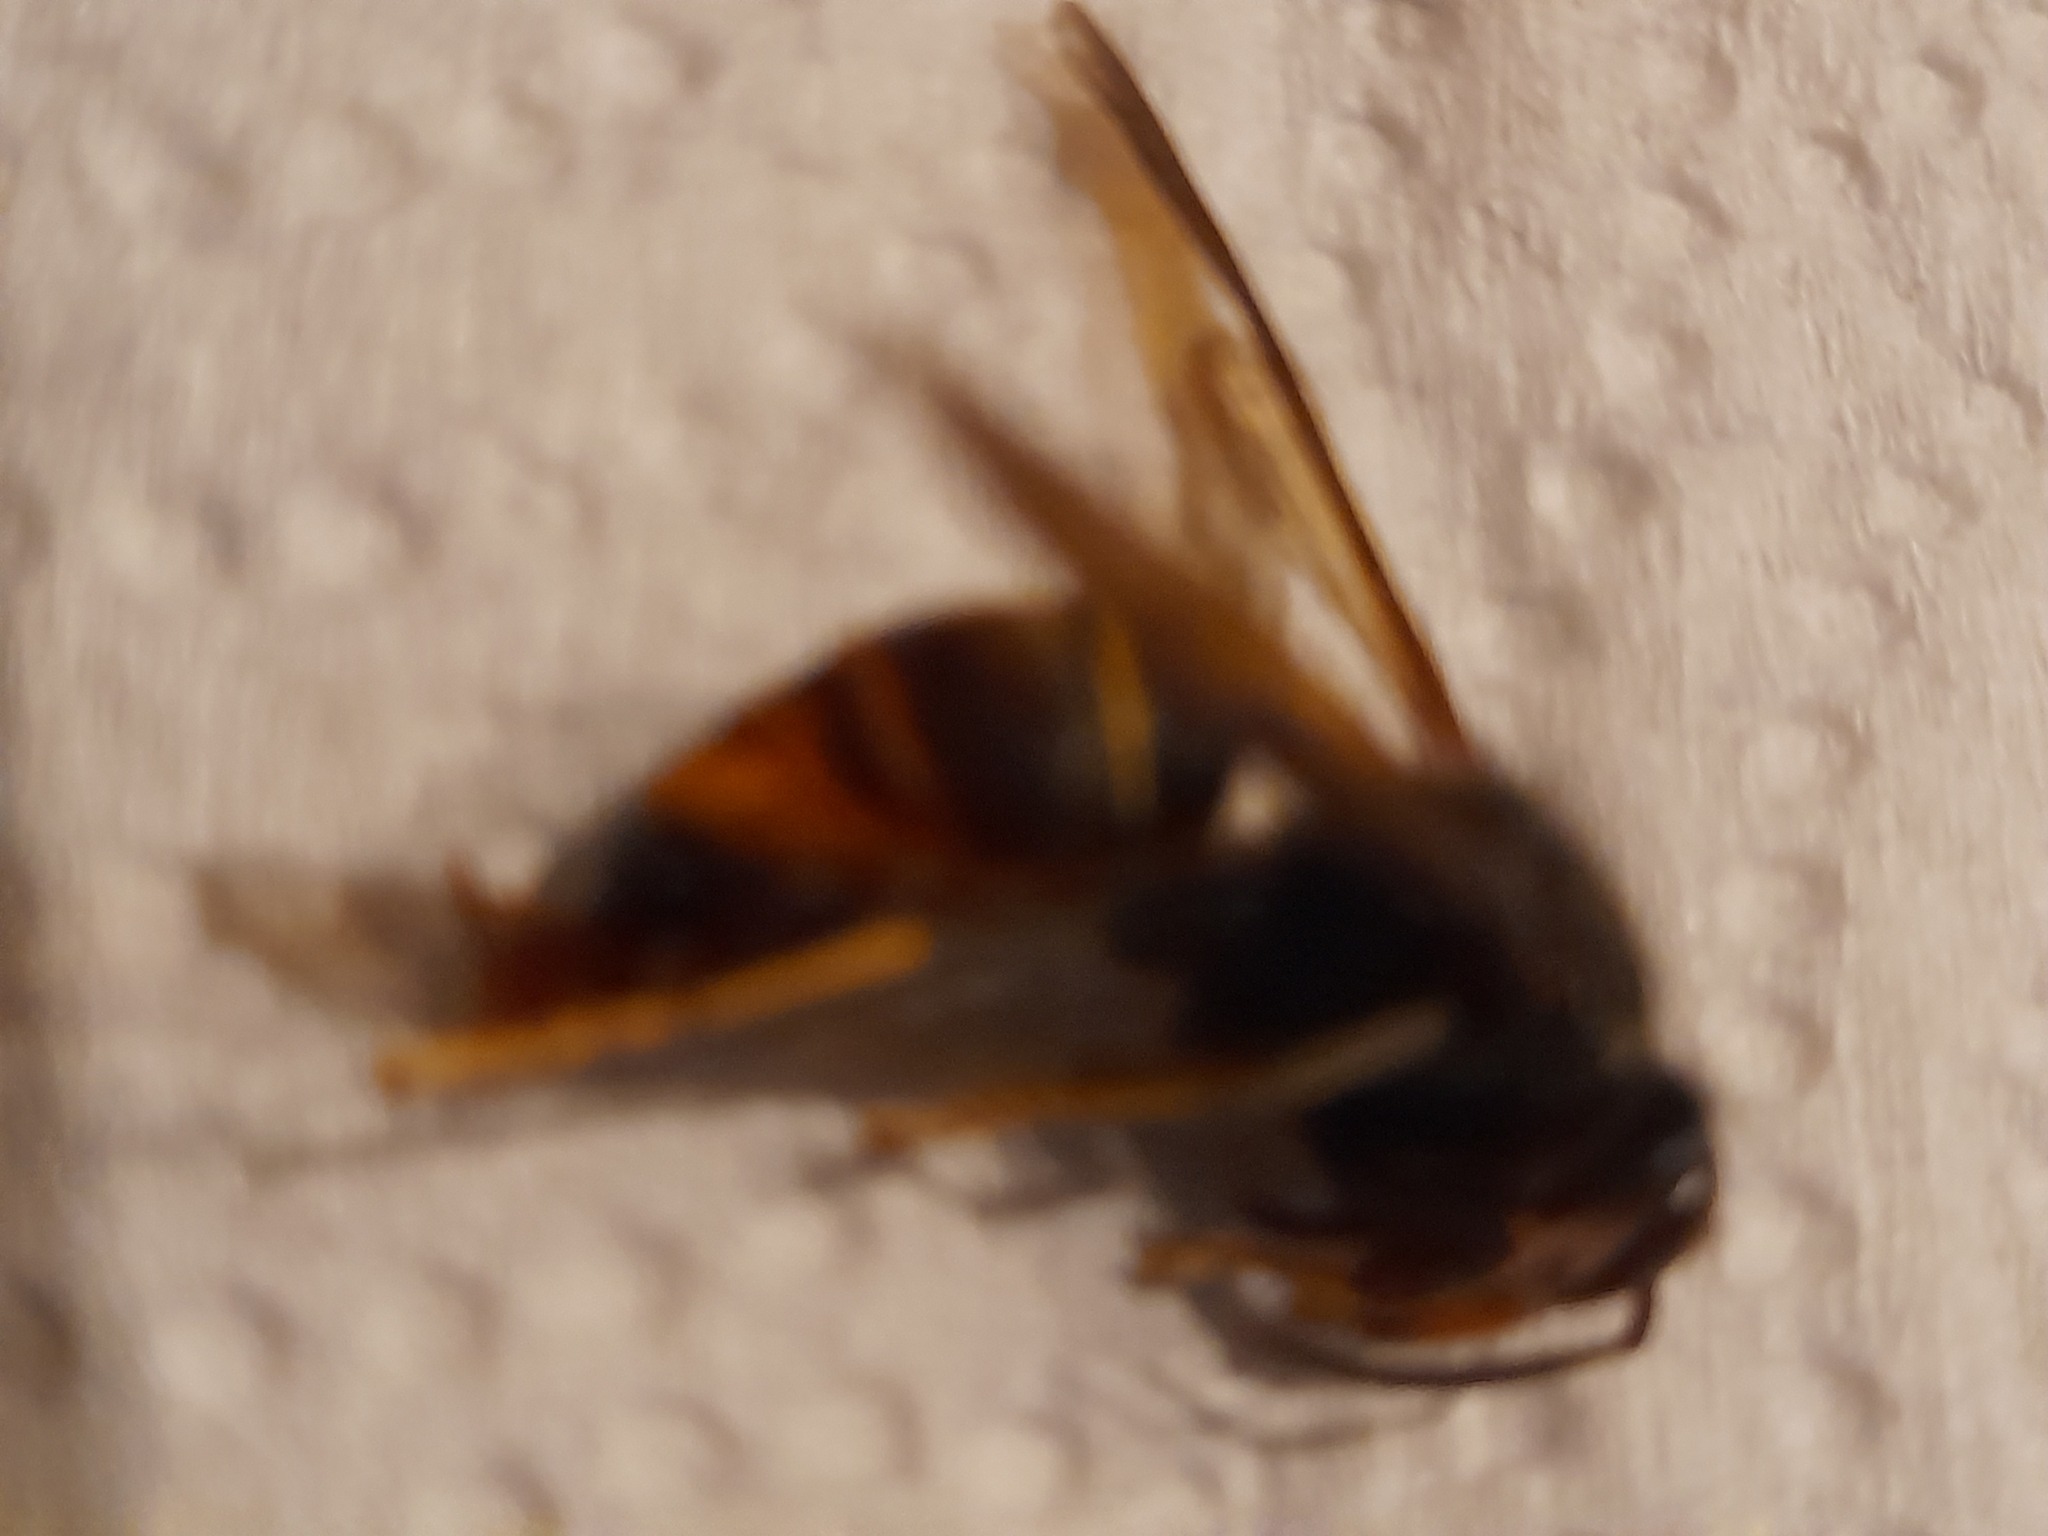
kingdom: Animalia
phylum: Arthropoda
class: Insecta
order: Hymenoptera
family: Vespidae
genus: Vespa
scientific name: Vespa velutina
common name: Asian hornet
